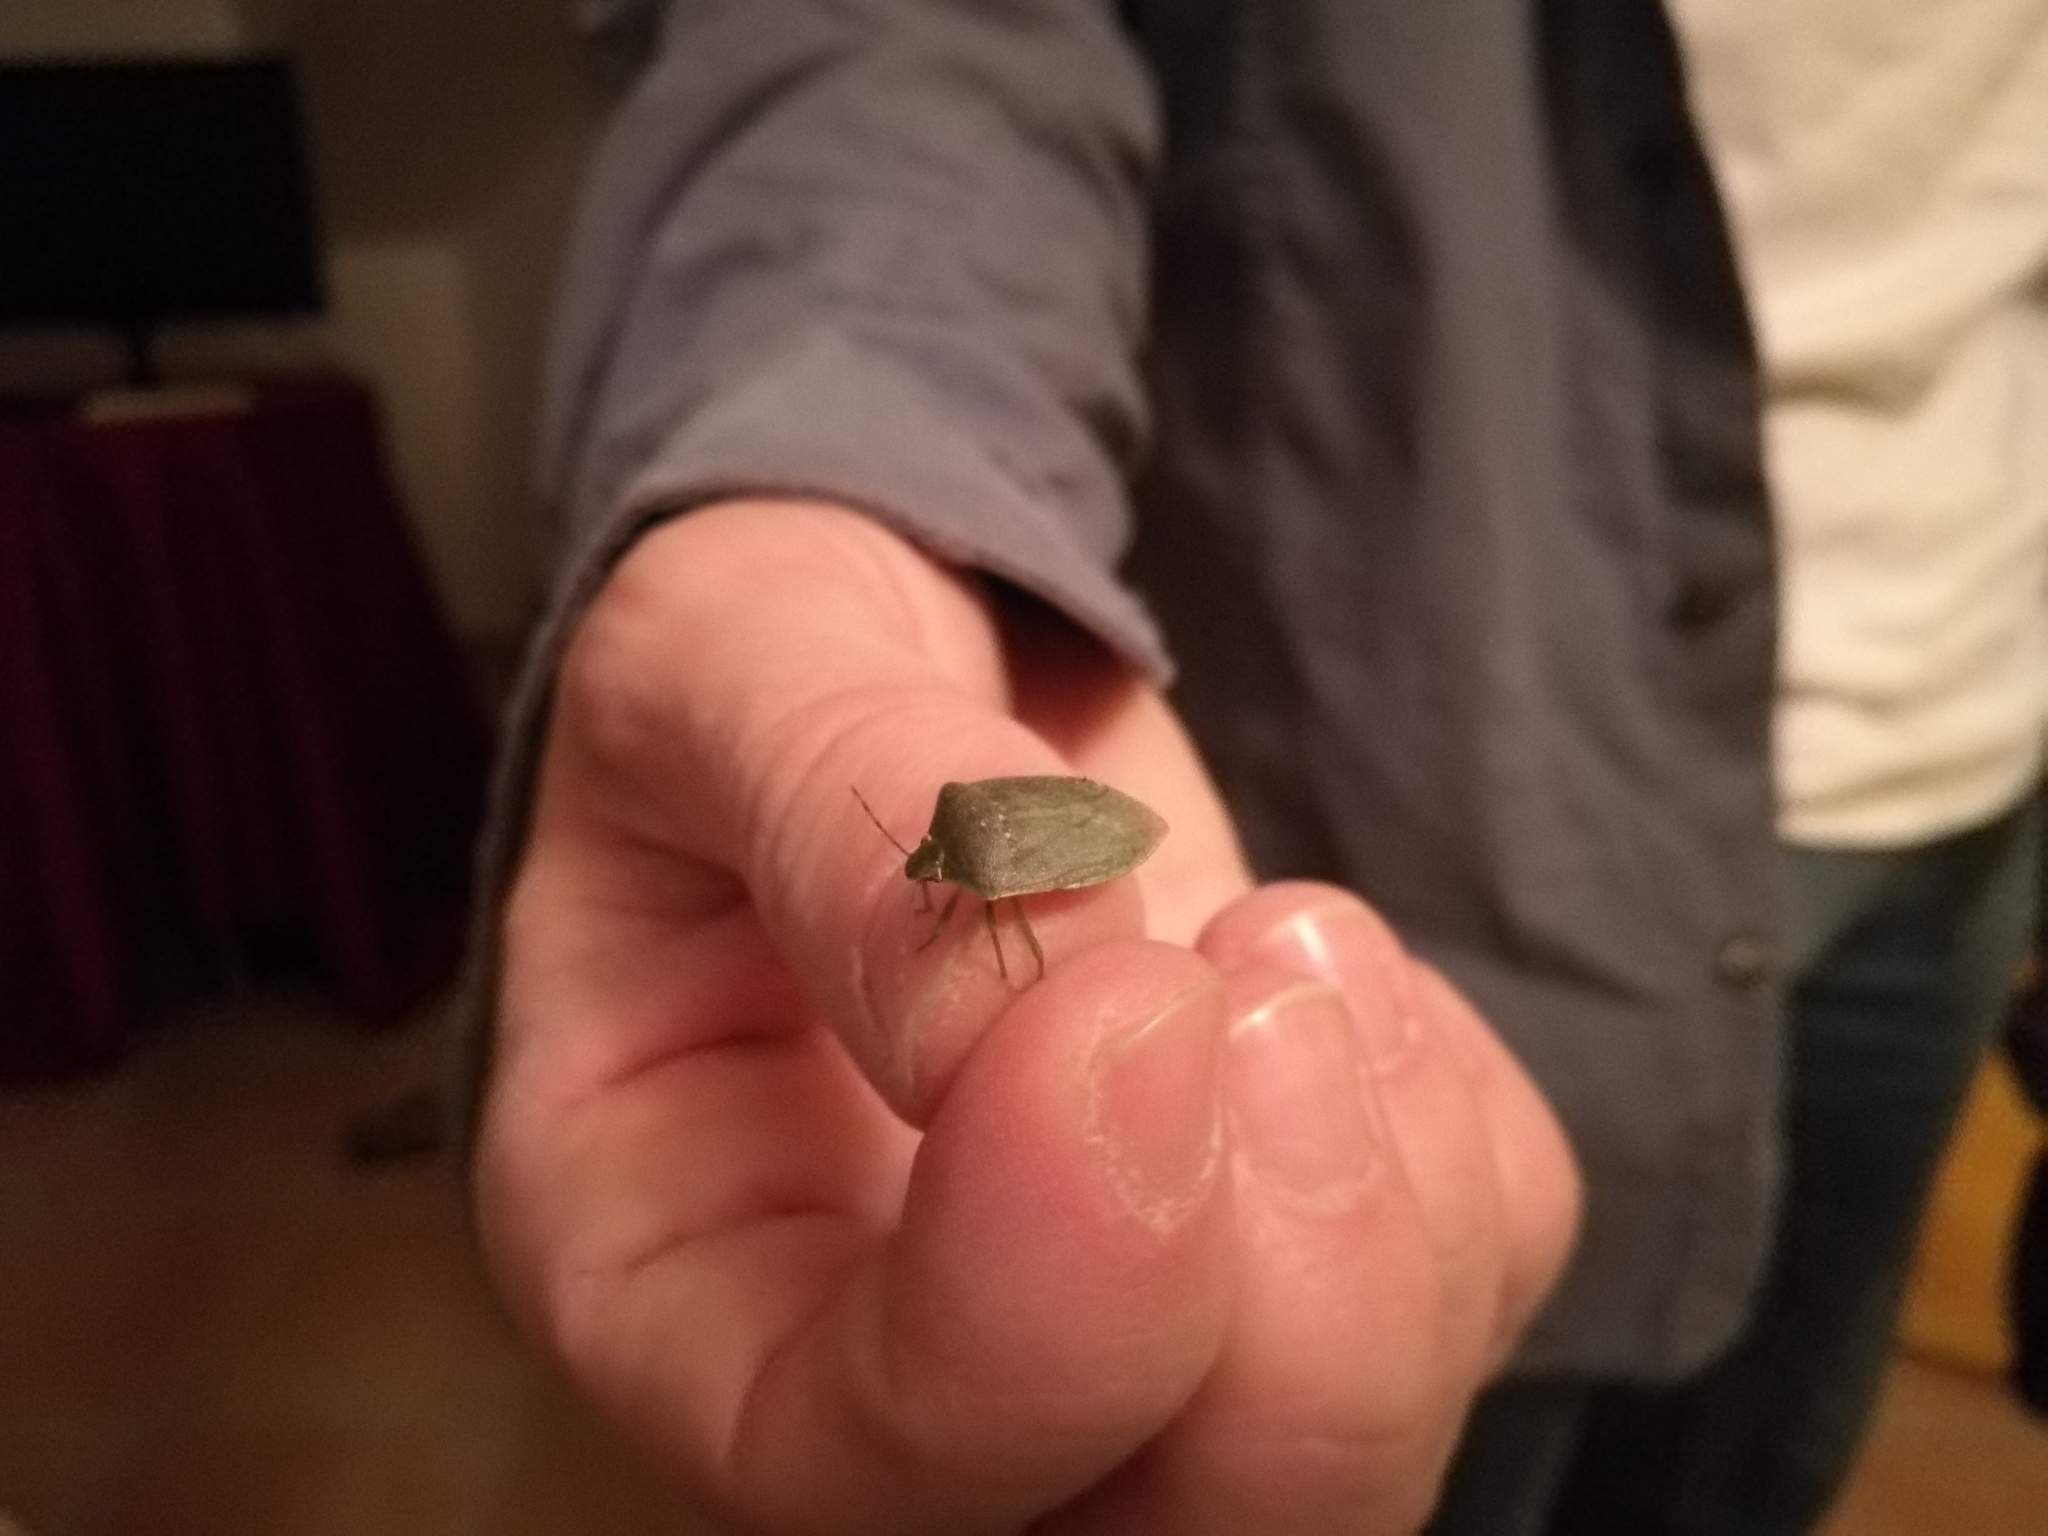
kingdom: Animalia
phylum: Arthropoda
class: Insecta
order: Hemiptera
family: Pentatomidae
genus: Nezara
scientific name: Nezara viridula
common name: Southern green stink bug
